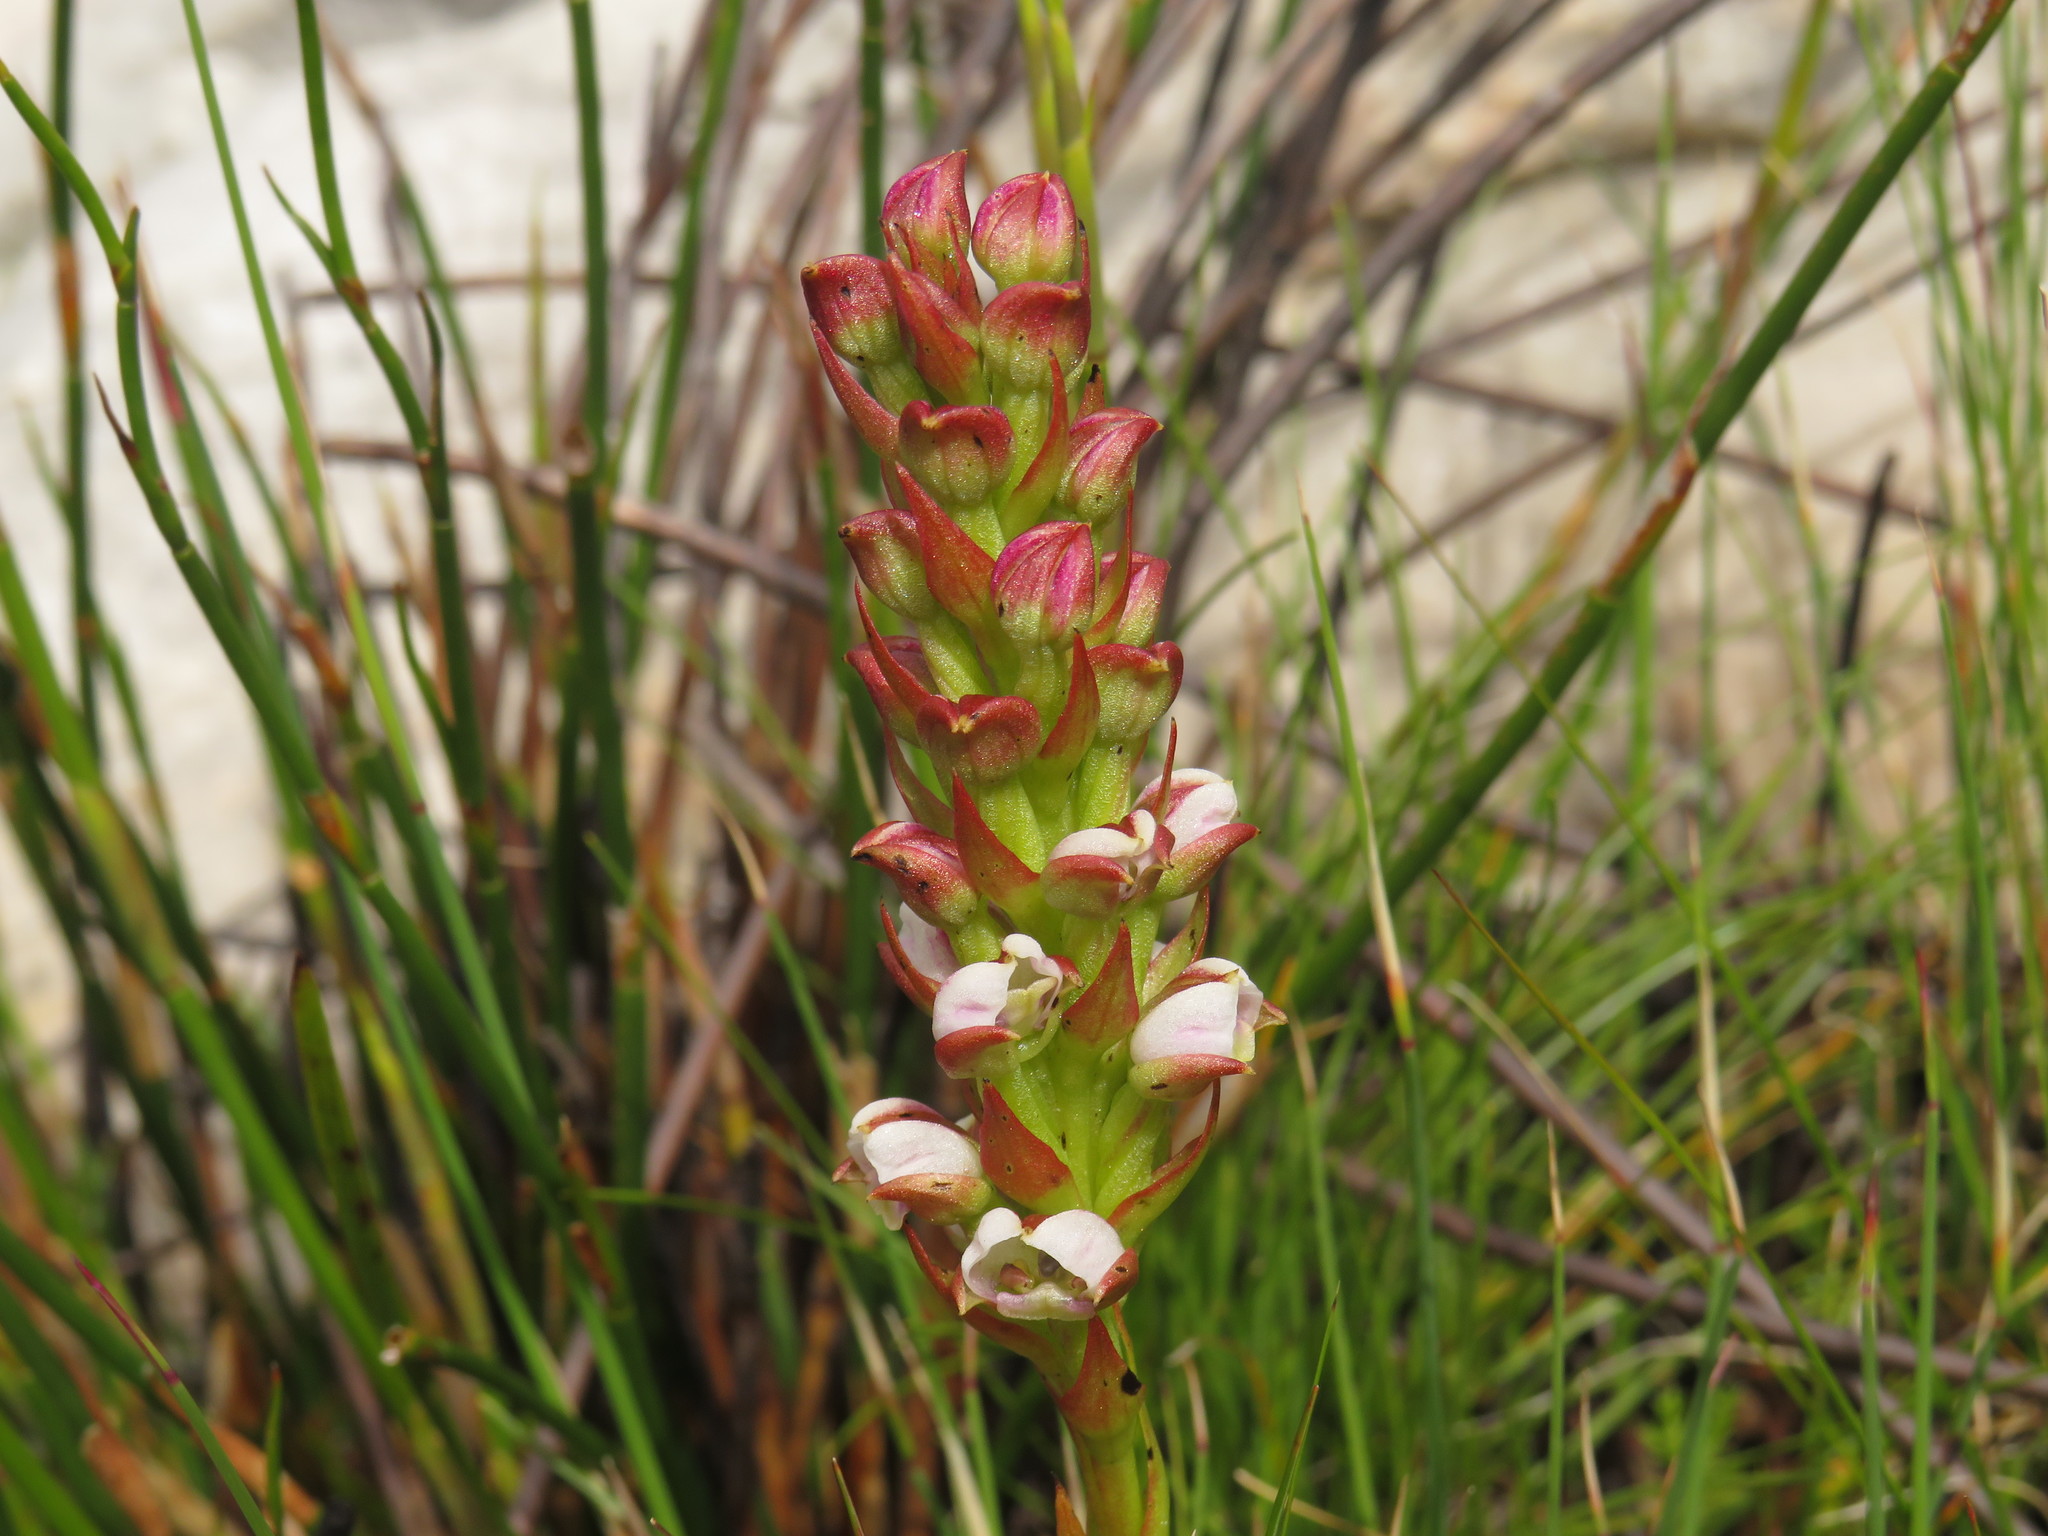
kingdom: Plantae
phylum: Tracheophyta
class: Liliopsida
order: Asparagales
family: Orchidaceae
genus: Evotella
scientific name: Evotella carnosa
